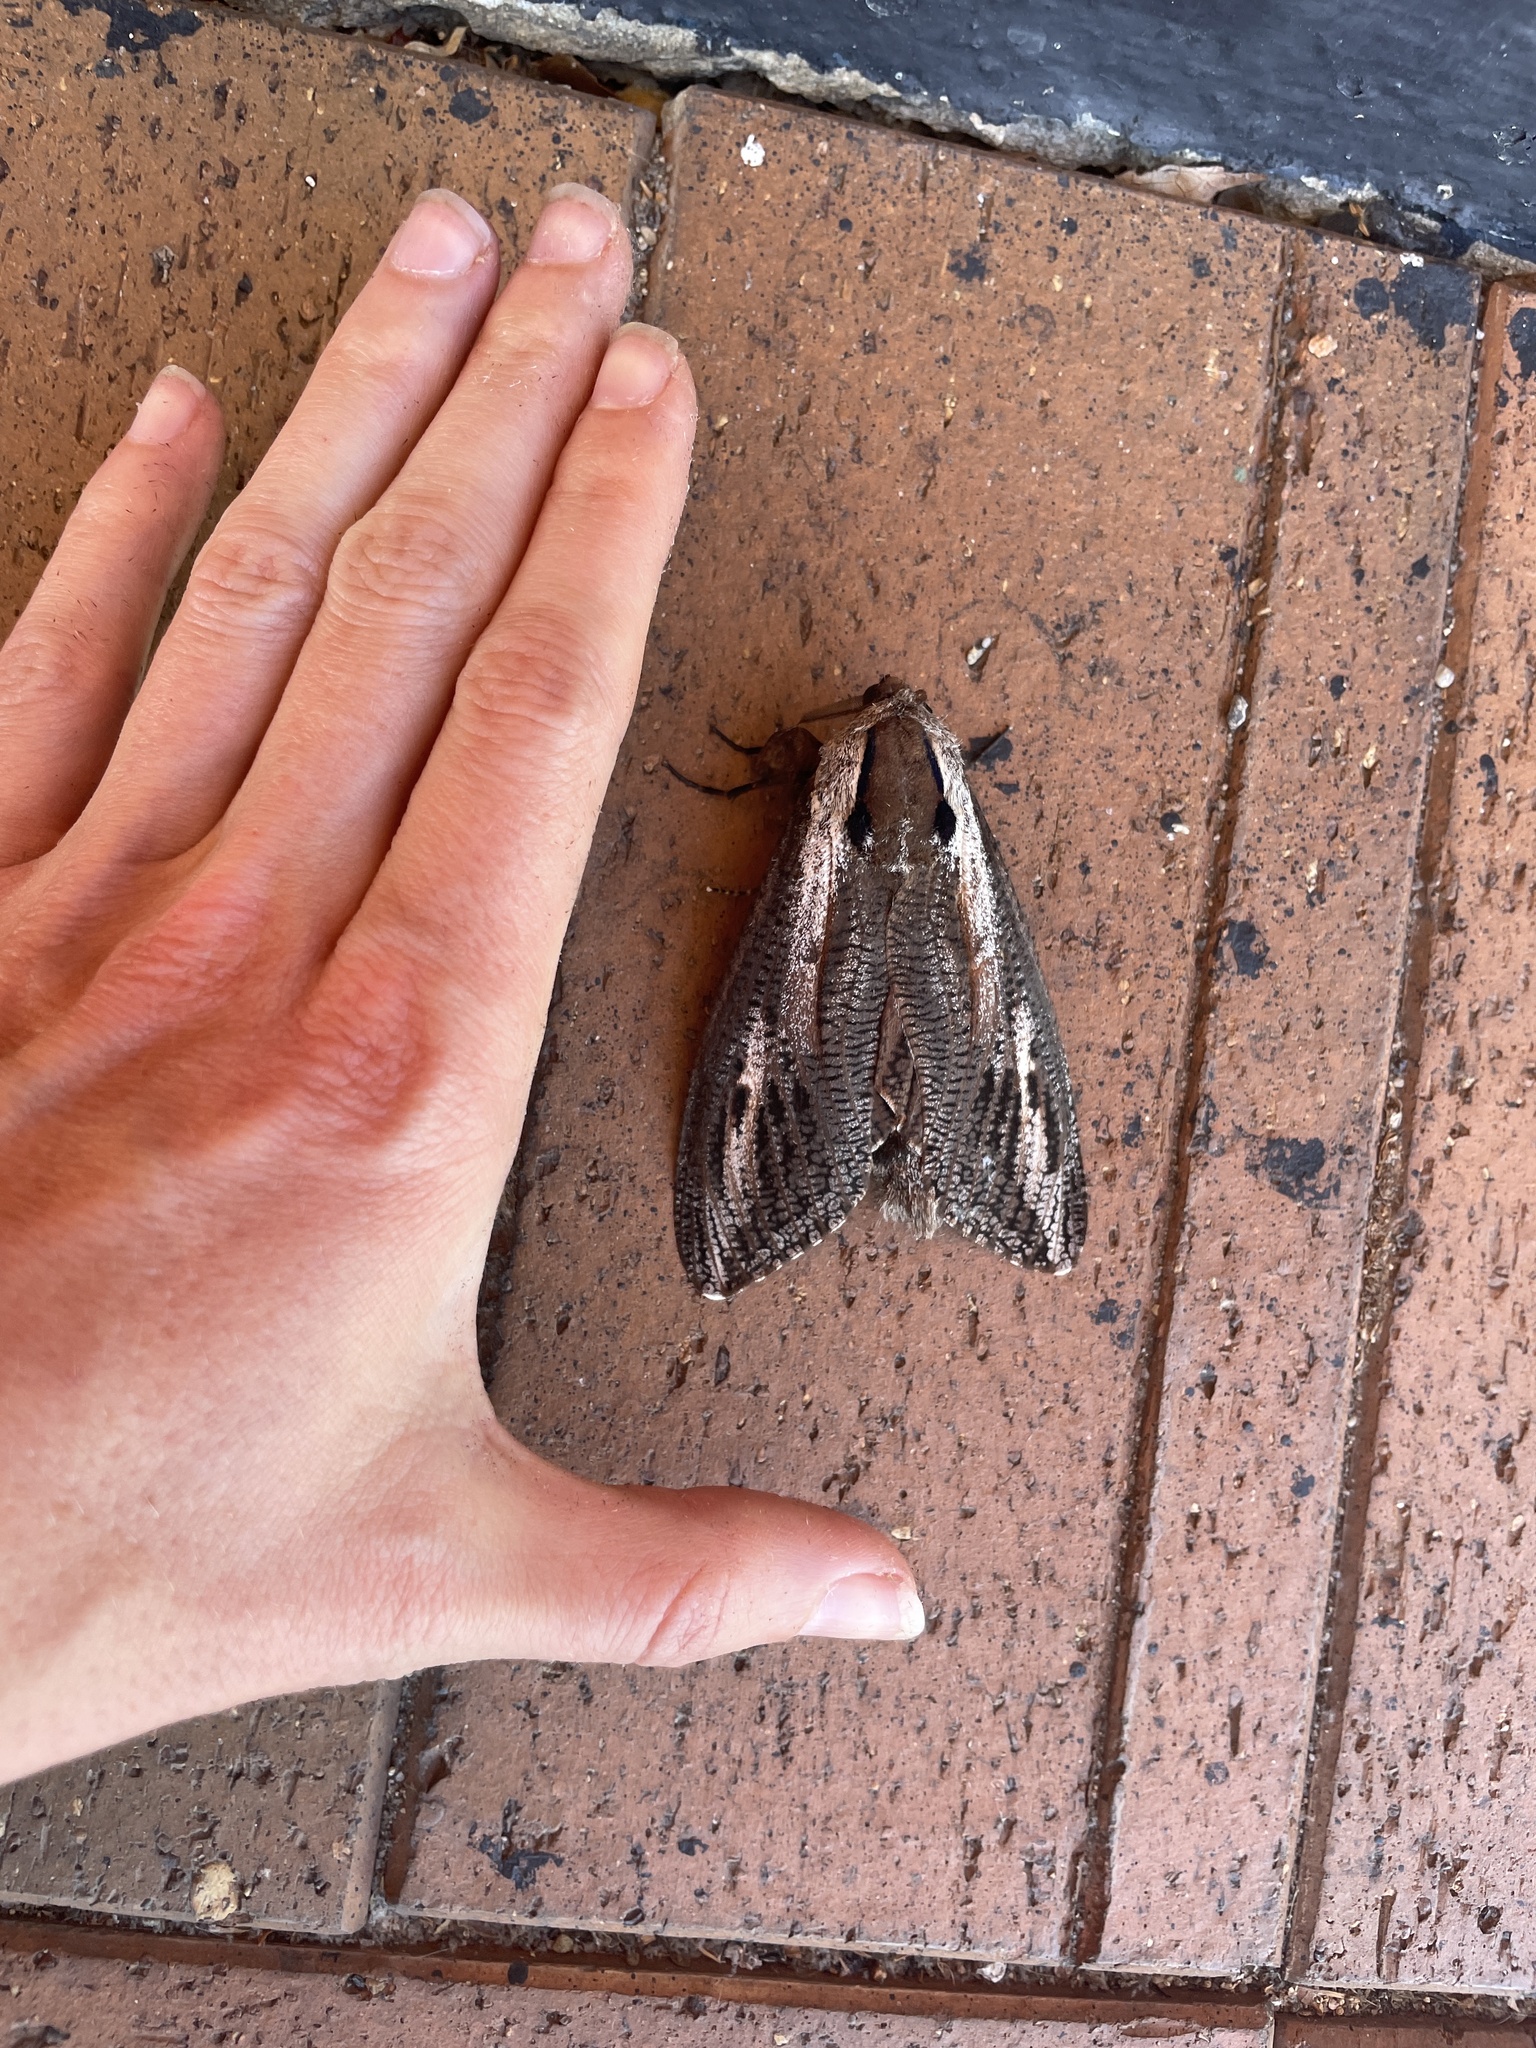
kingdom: Animalia
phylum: Arthropoda
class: Insecta
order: Lepidoptera
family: Cossidae
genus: Endoxyla
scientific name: Endoxyla encalypti
